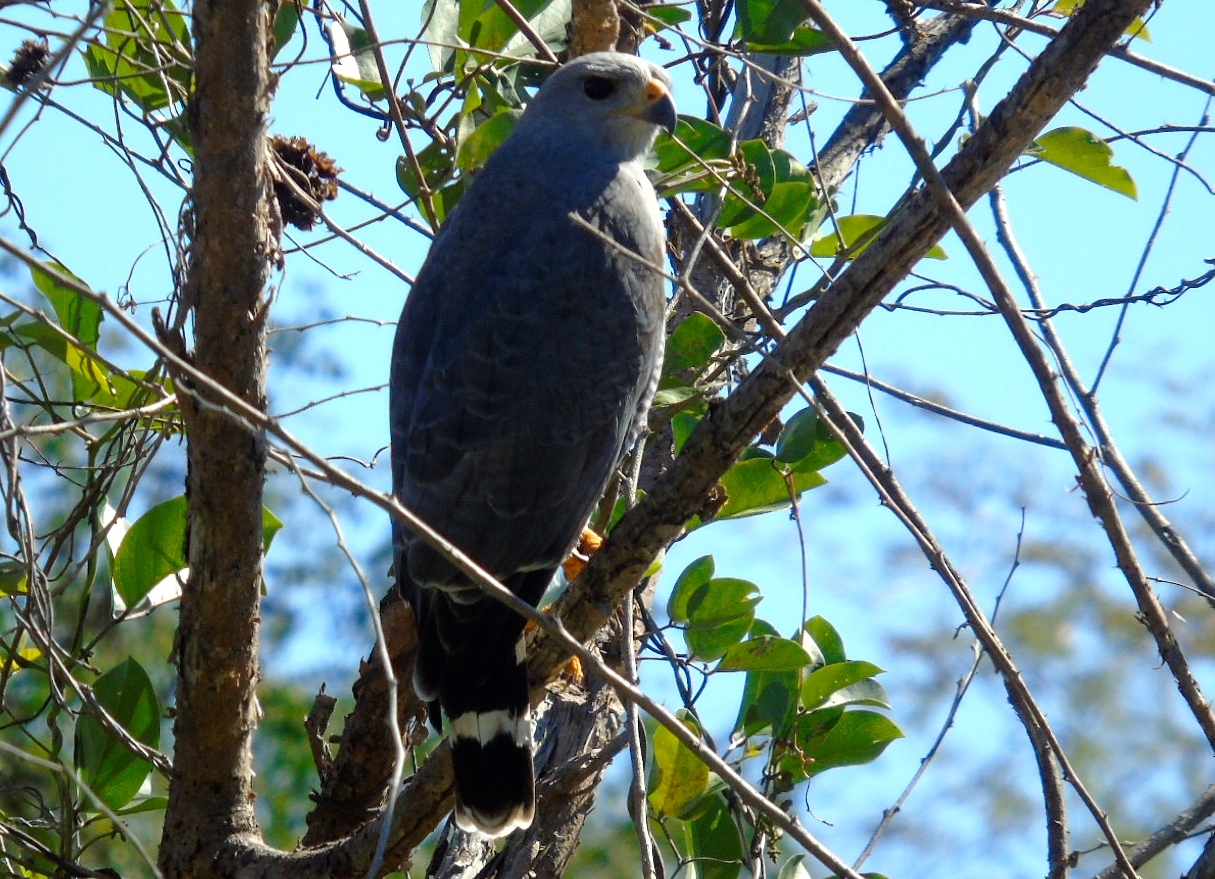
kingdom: Animalia
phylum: Chordata
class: Aves
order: Accipitriformes
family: Accipitridae
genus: Buteo
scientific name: Buteo nitidus
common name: Grey-lined hawk
